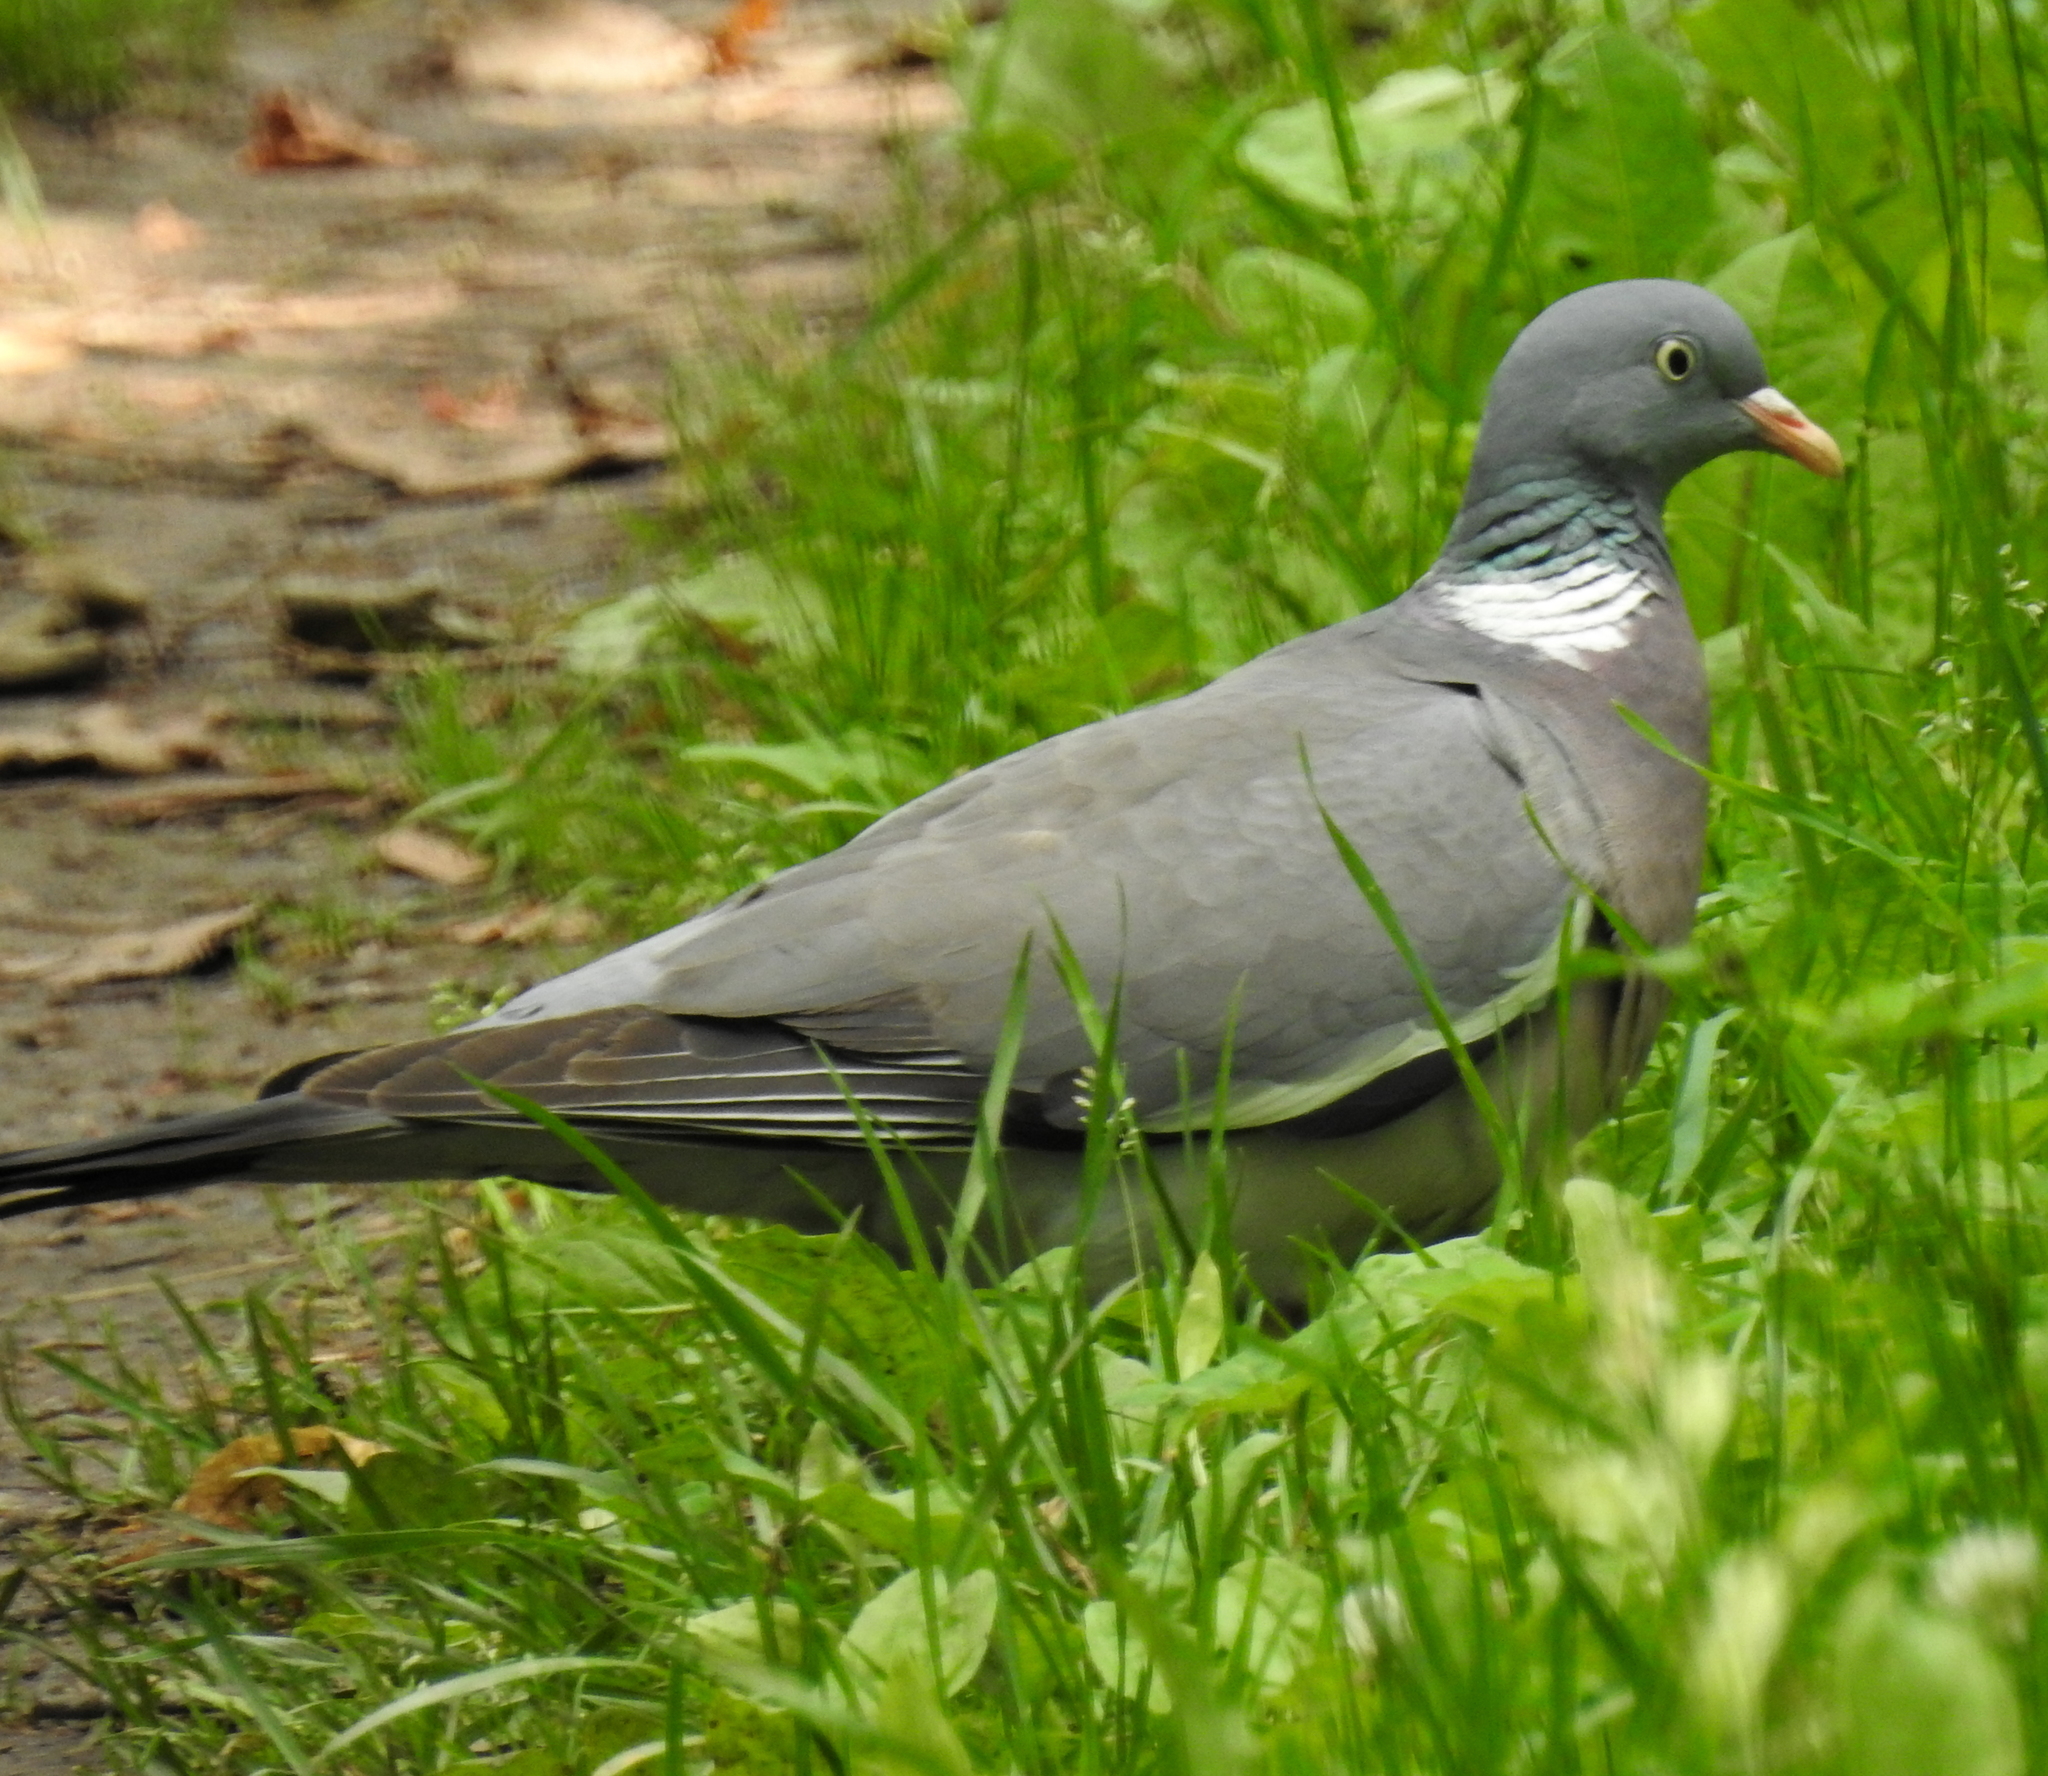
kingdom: Animalia
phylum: Chordata
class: Aves
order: Columbiformes
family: Columbidae
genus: Columba
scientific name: Columba palumbus
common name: Common wood pigeon
